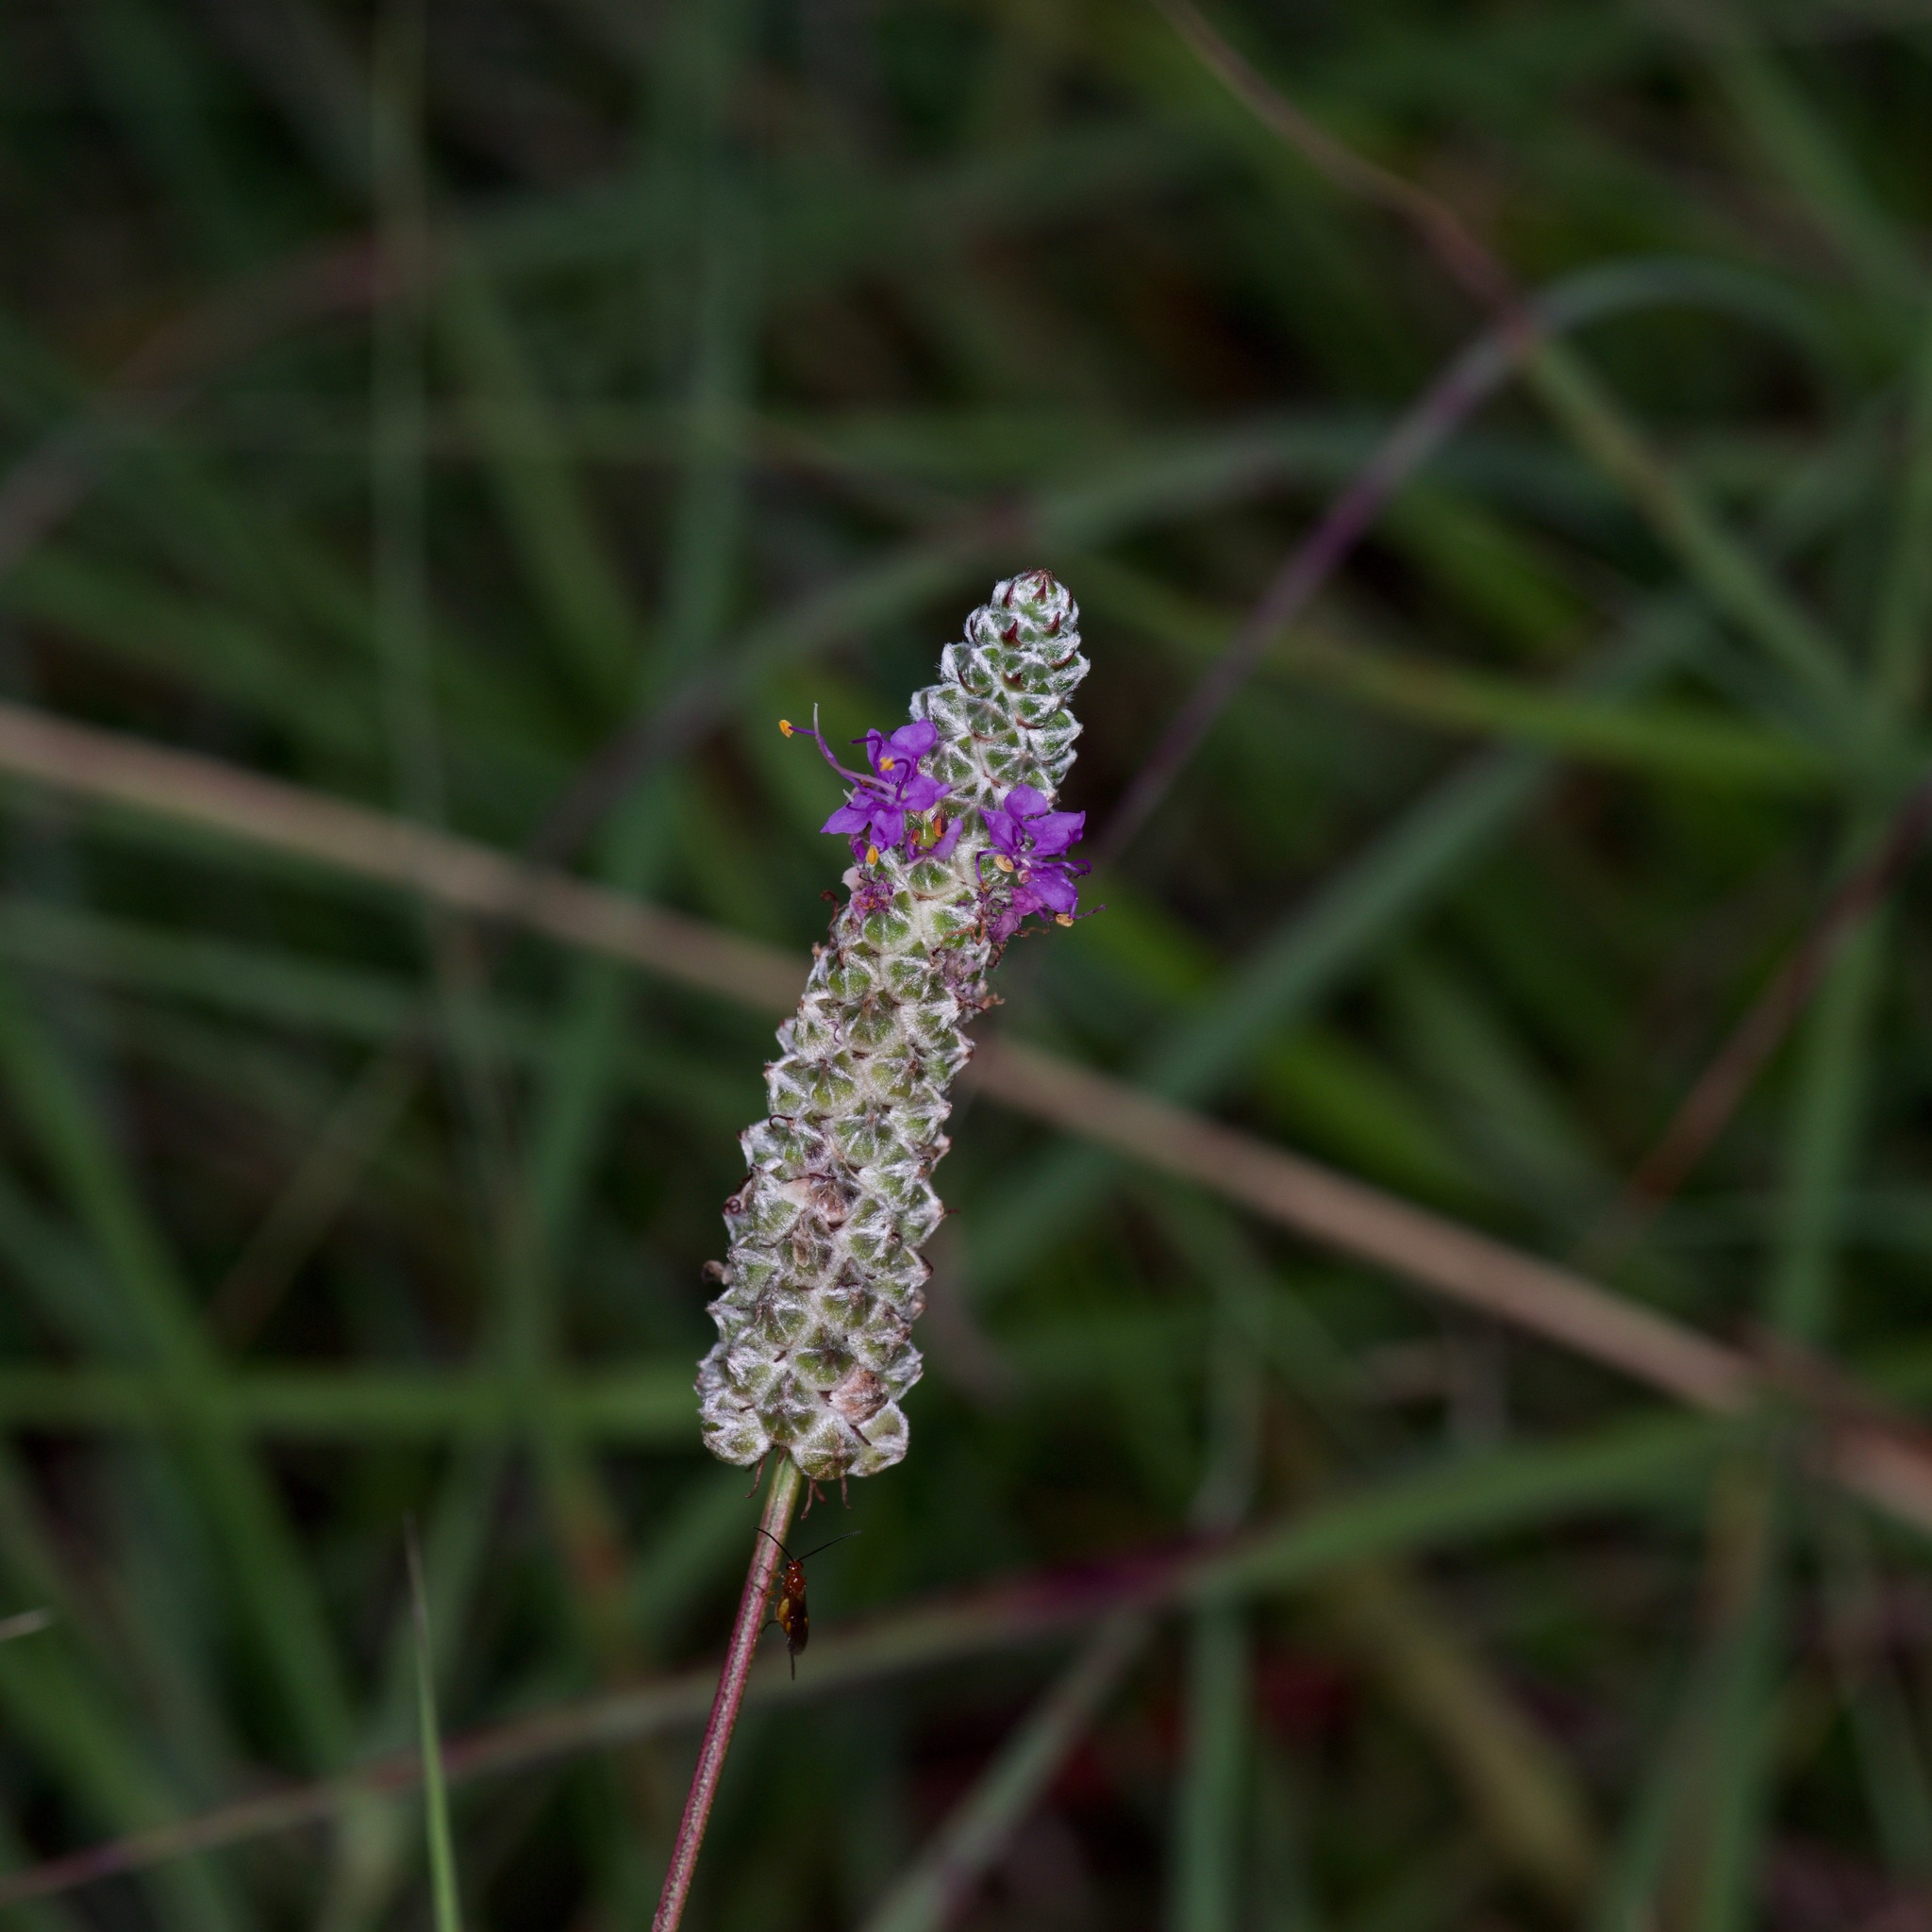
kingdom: Plantae
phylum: Tracheophyta
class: Magnoliopsida
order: Fabales
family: Fabaceae
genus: Dalea
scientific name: Dalea tenuis
